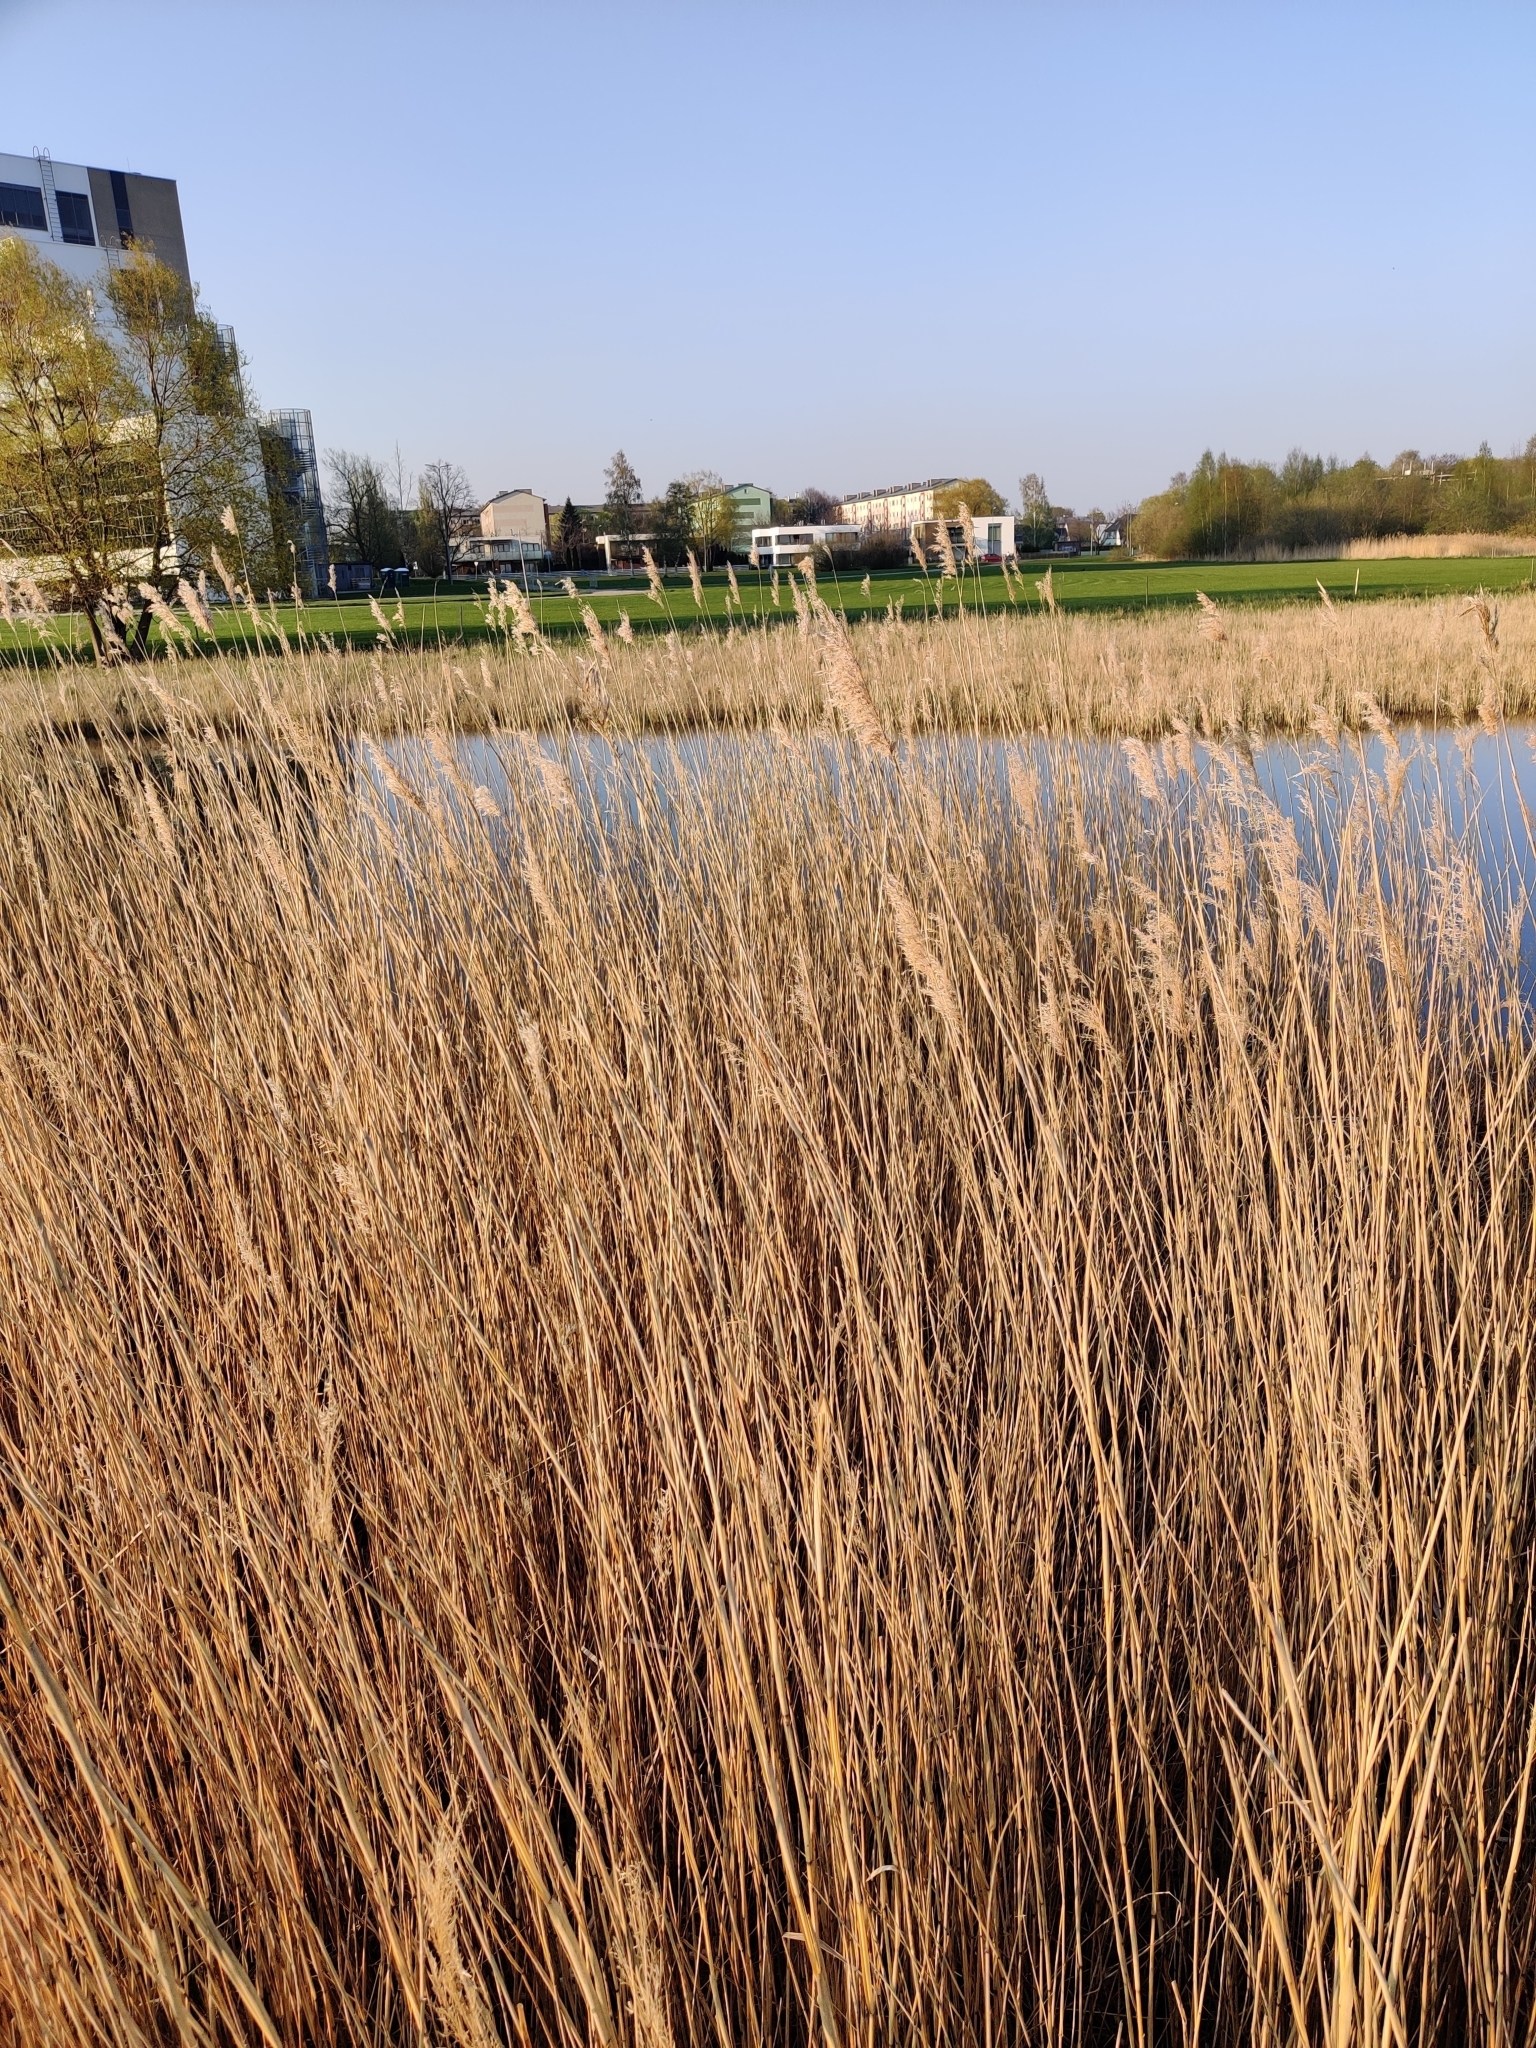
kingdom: Plantae
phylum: Tracheophyta
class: Liliopsida
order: Poales
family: Poaceae
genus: Phragmites
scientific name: Phragmites australis
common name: Common reed
